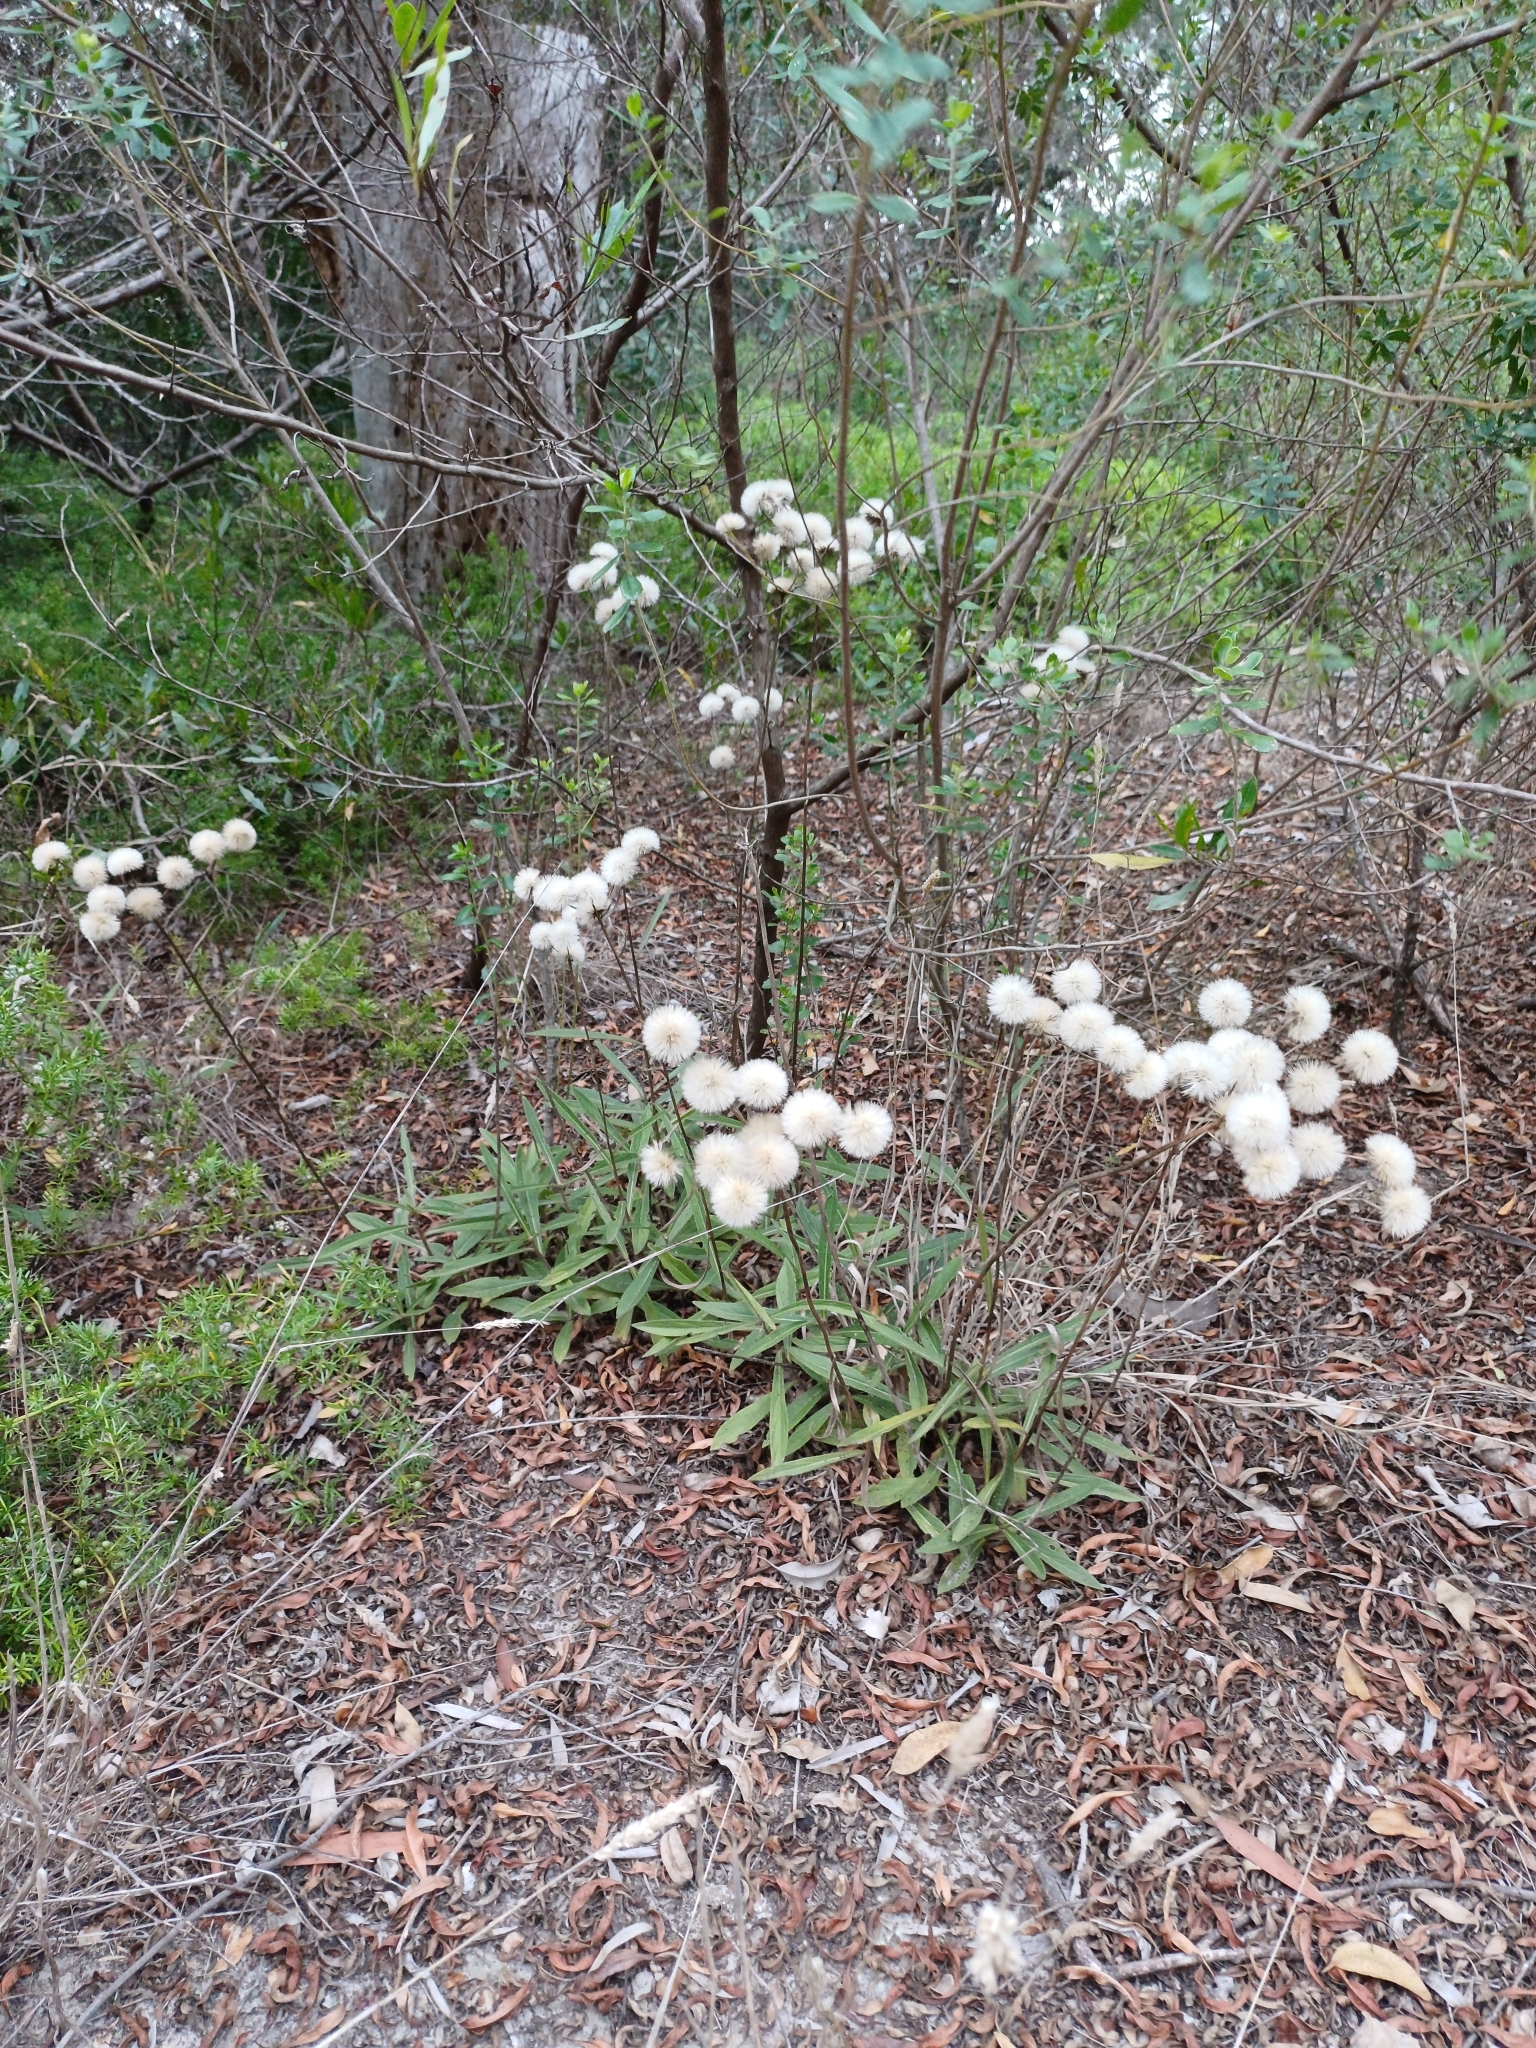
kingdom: Plantae
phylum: Tracheophyta
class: Magnoliopsida
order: Asterales
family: Asteraceae
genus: Chrysolaena
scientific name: Chrysolaena flexuosa
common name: Zig-zag vernonia
